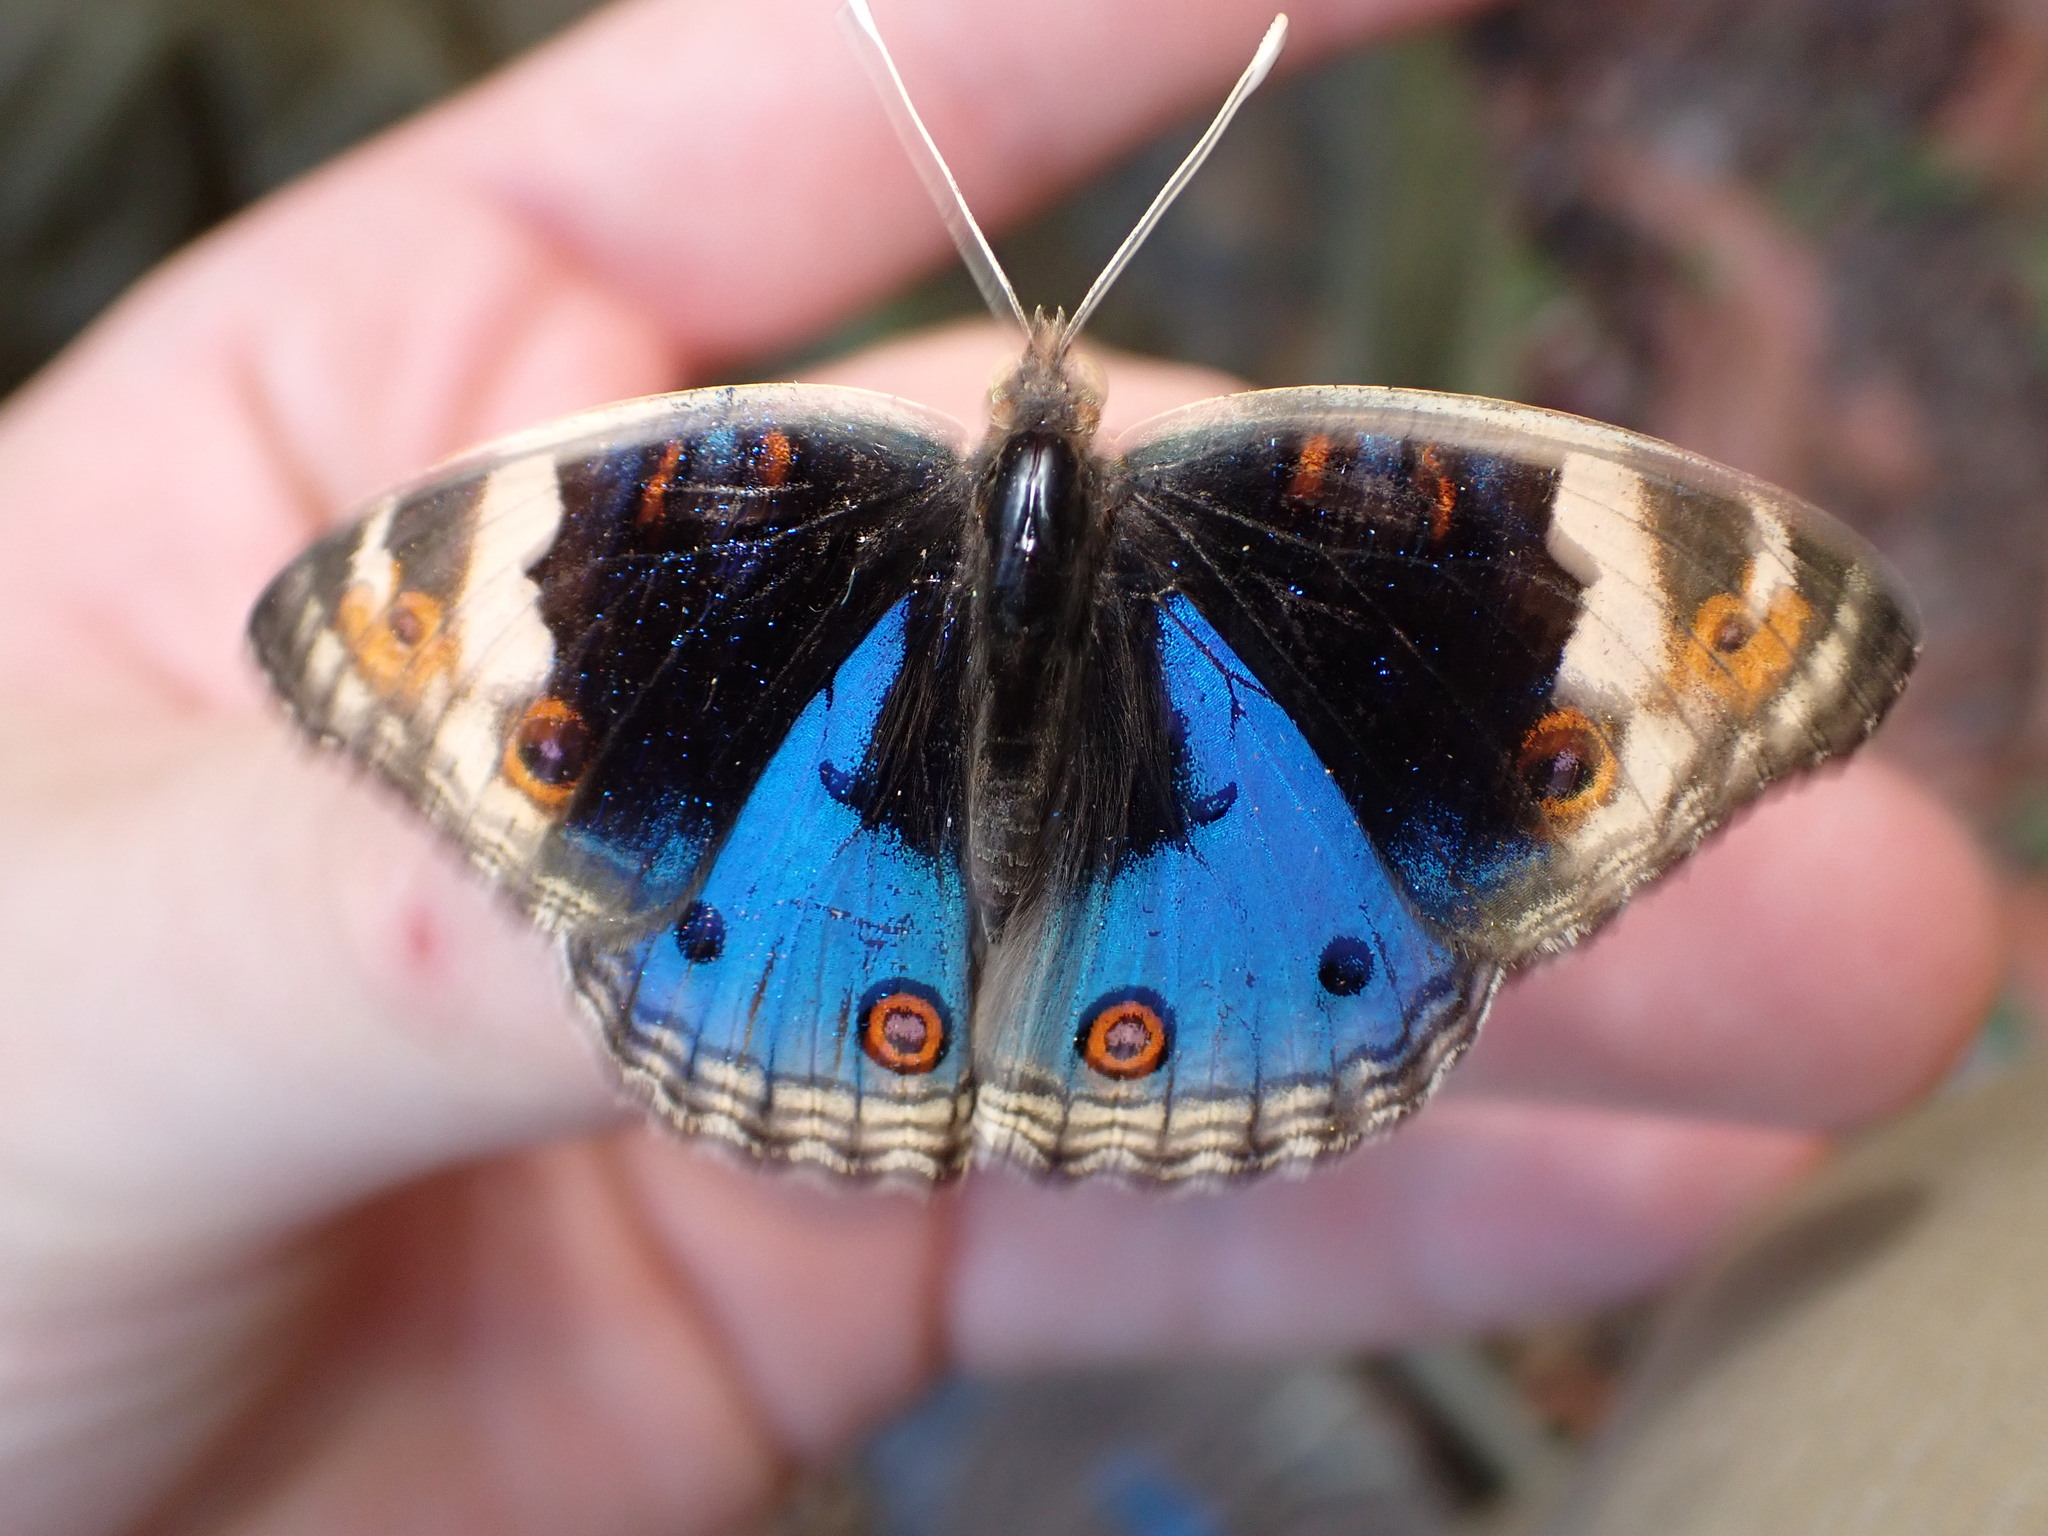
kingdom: Animalia
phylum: Arthropoda
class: Insecta
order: Lepidoptera
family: Nymphalidae
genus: Junonia
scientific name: Junonia orithya
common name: Blue pansy
